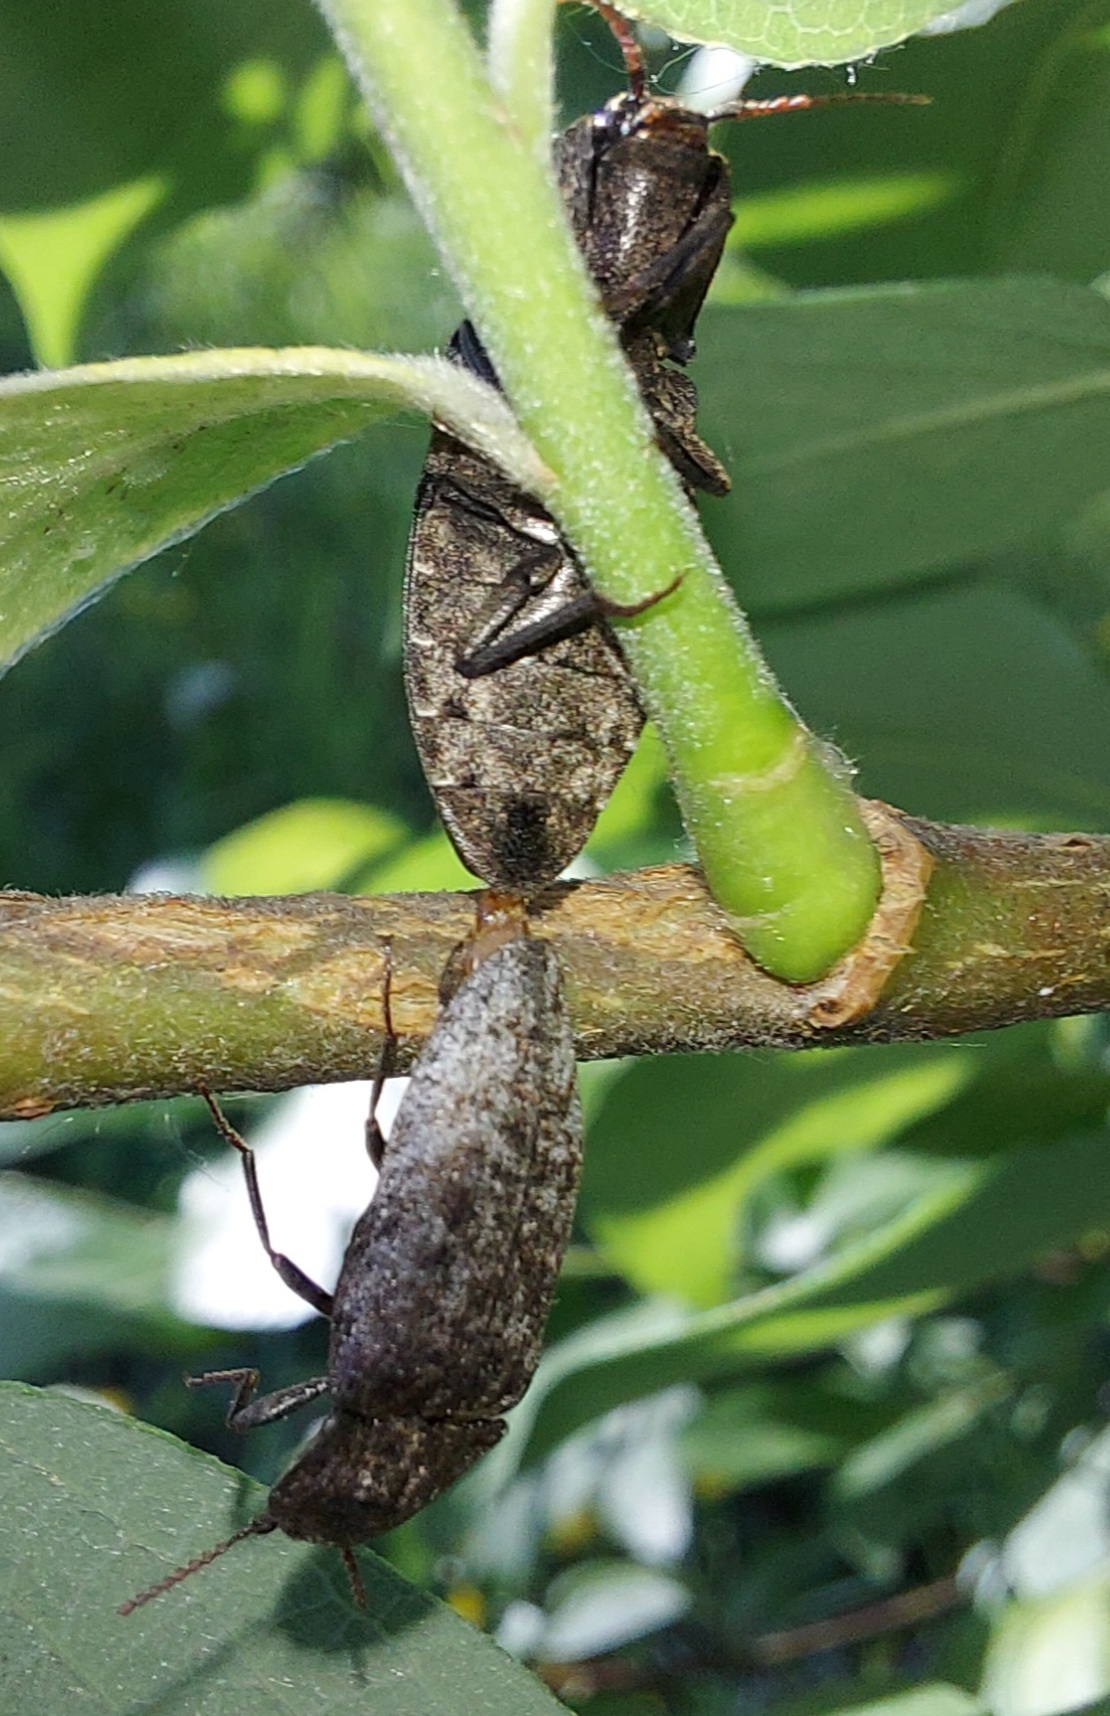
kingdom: Animalia
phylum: Arthropoda
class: Insecta
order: Coleoptera
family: Elateridae
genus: Agrypnus
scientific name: Agrypnus murinus
